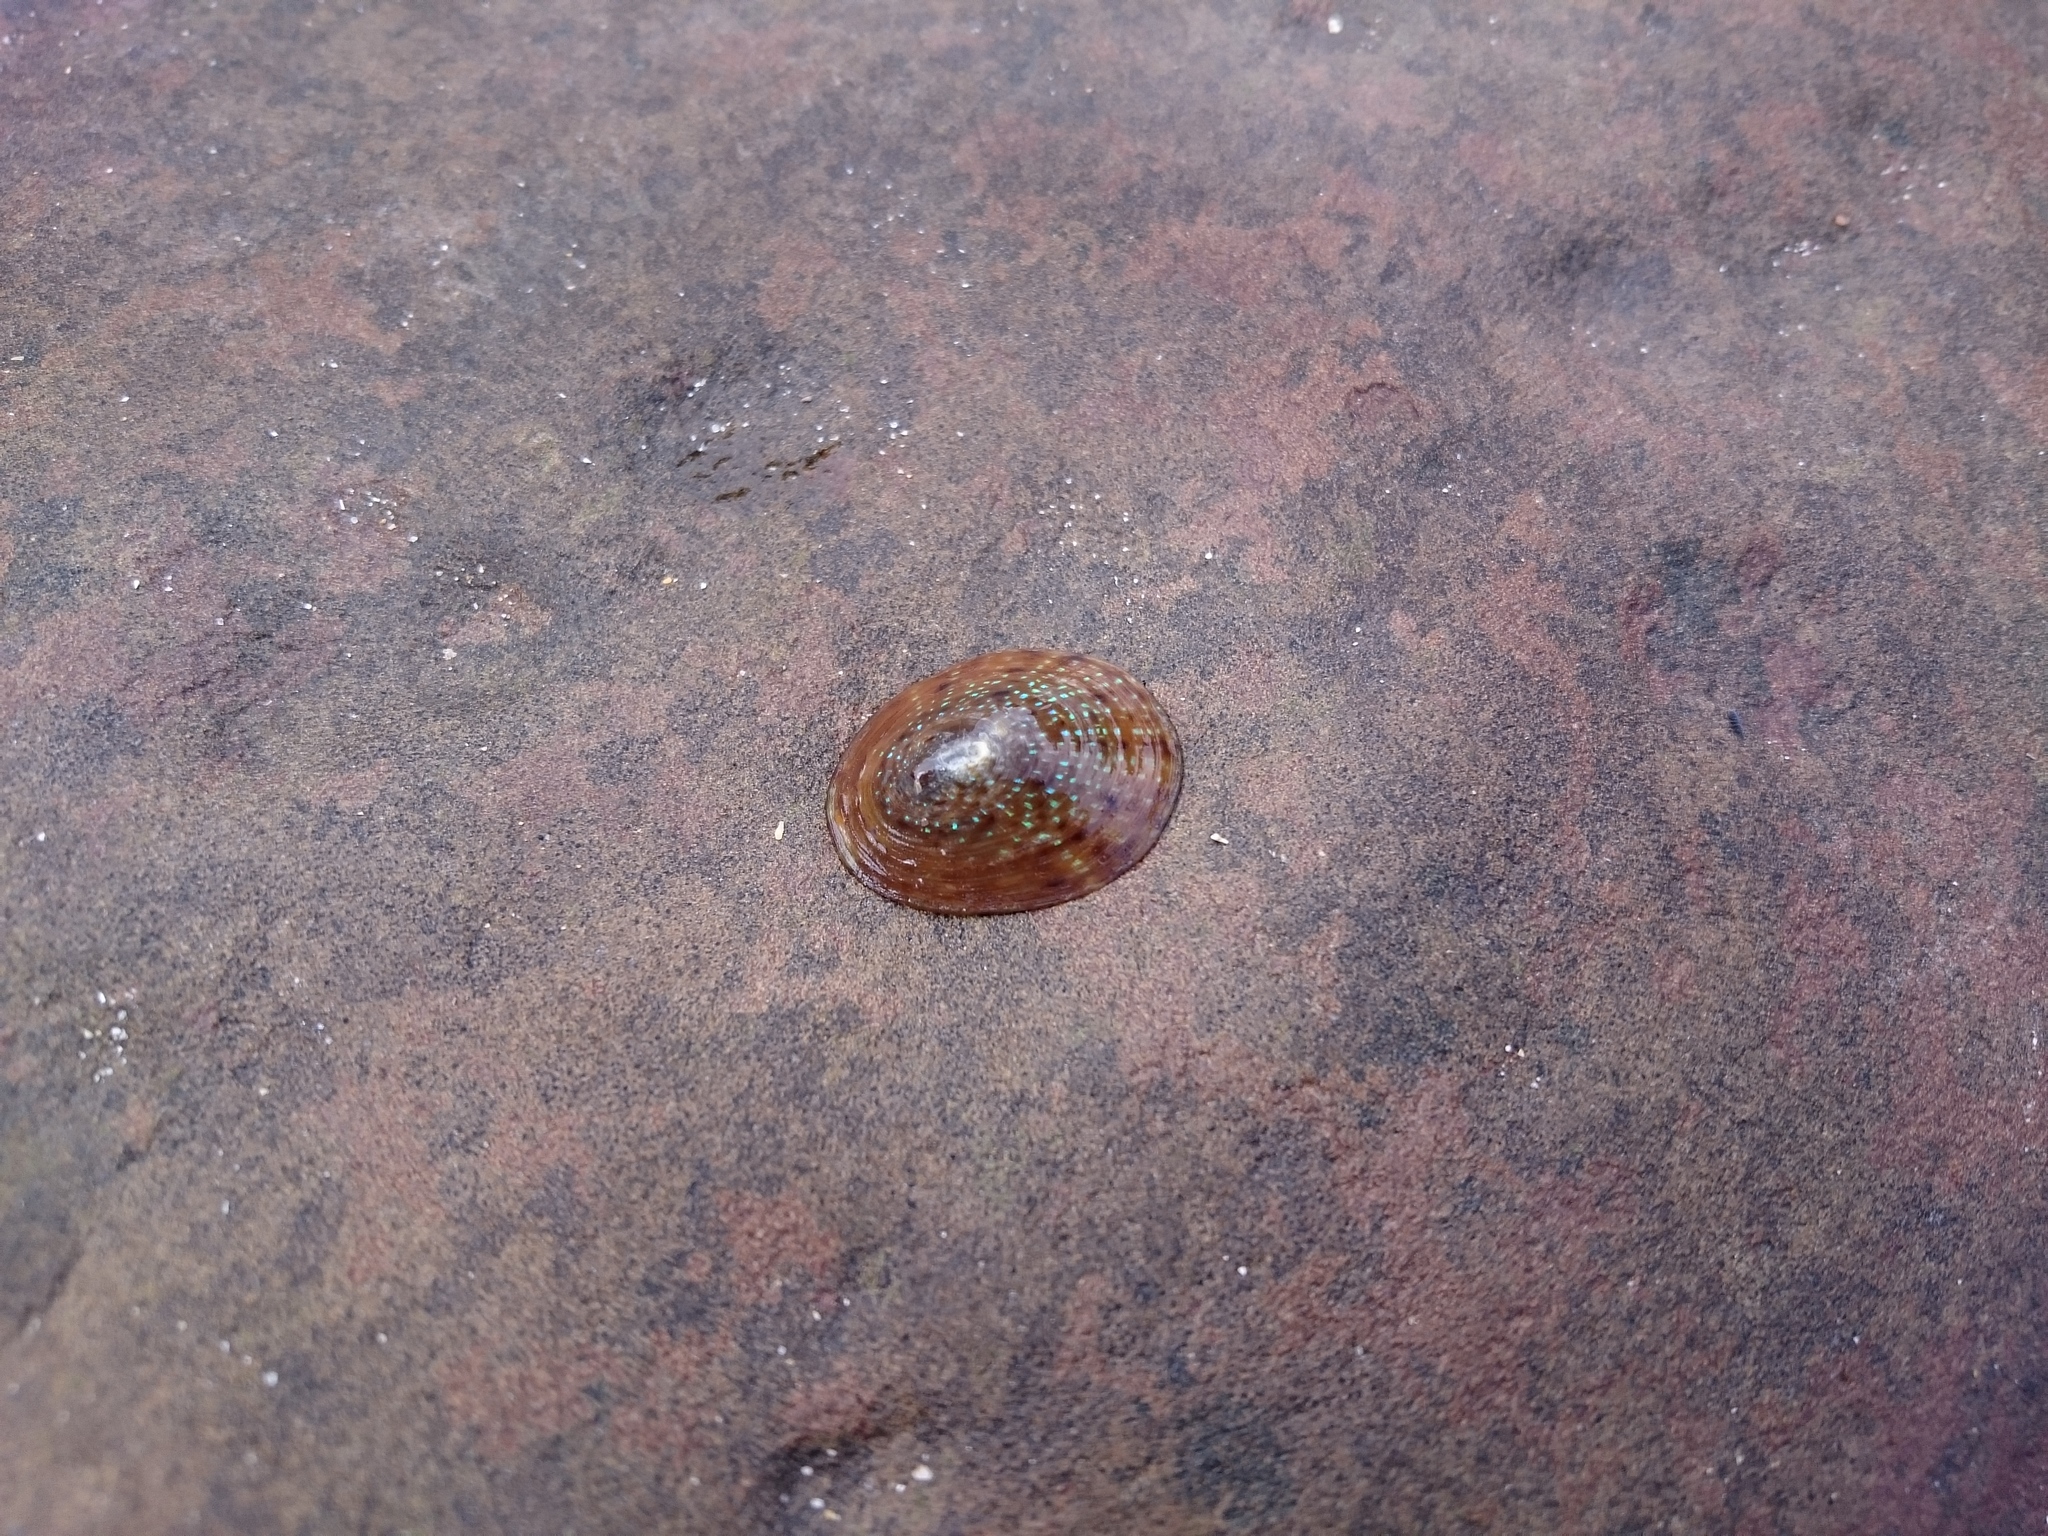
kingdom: Animalia
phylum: Mollusca
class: Gastropoda
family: Patellidae
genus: Helcion
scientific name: Helcion pruinosus
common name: Rayed limpet
